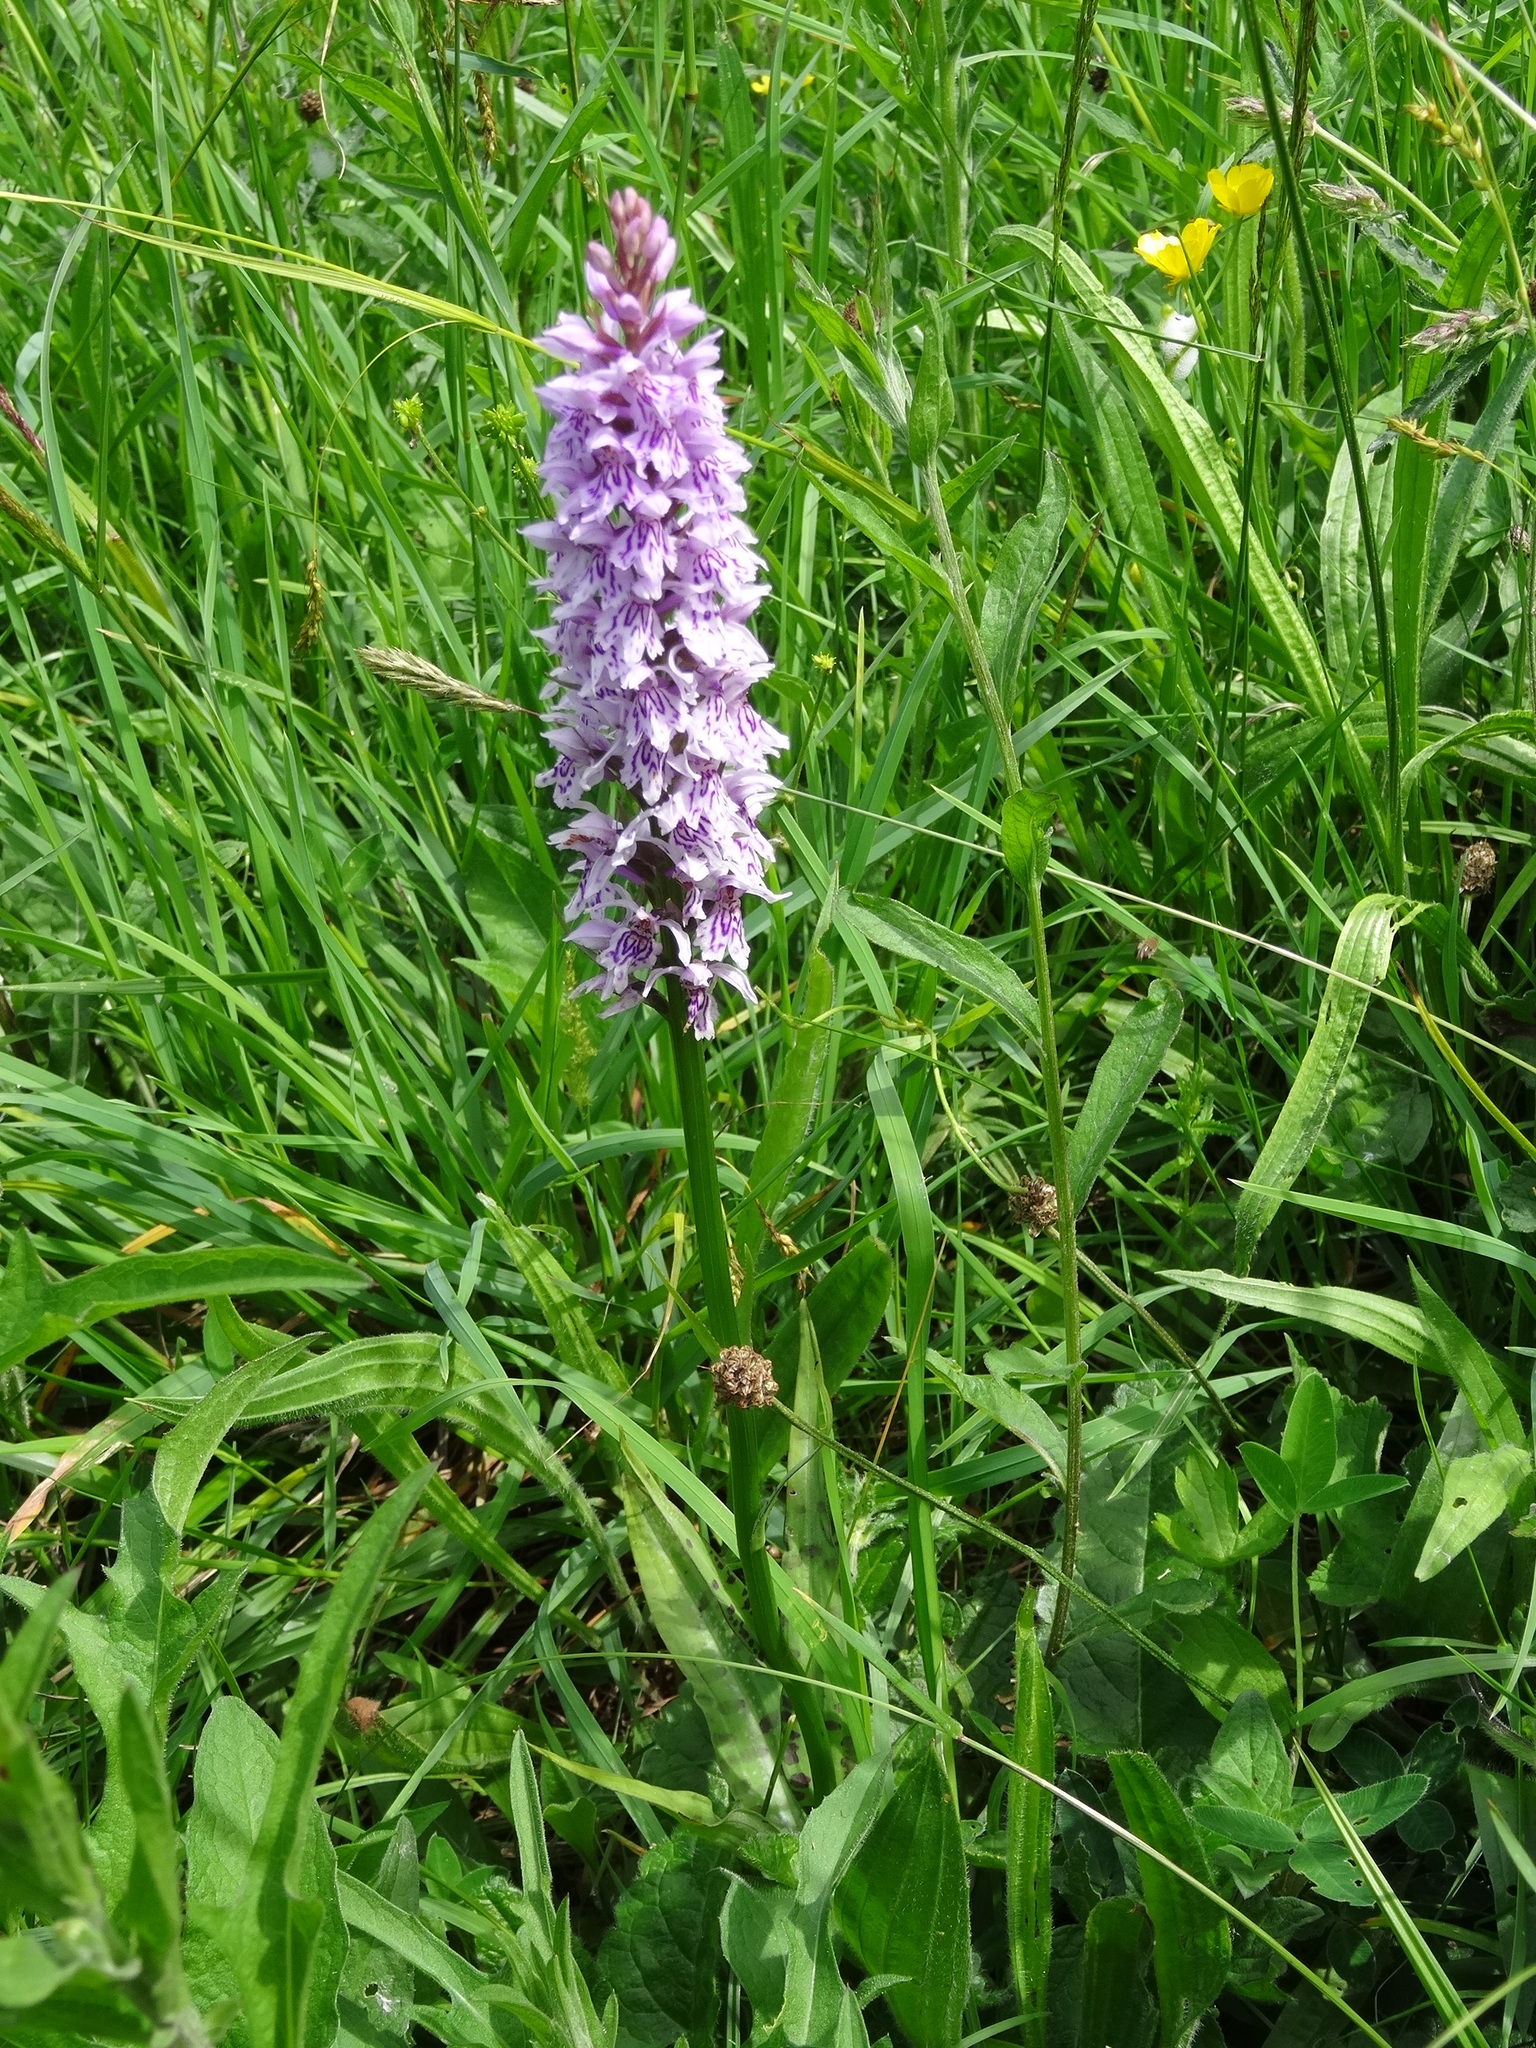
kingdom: Plantae
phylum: Tracheophyta
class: Liliopsida
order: Asparagales
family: Orchidaceae
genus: Dactylorhiza
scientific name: Dactylorhiza maculata
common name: Heath spotted-orchid
